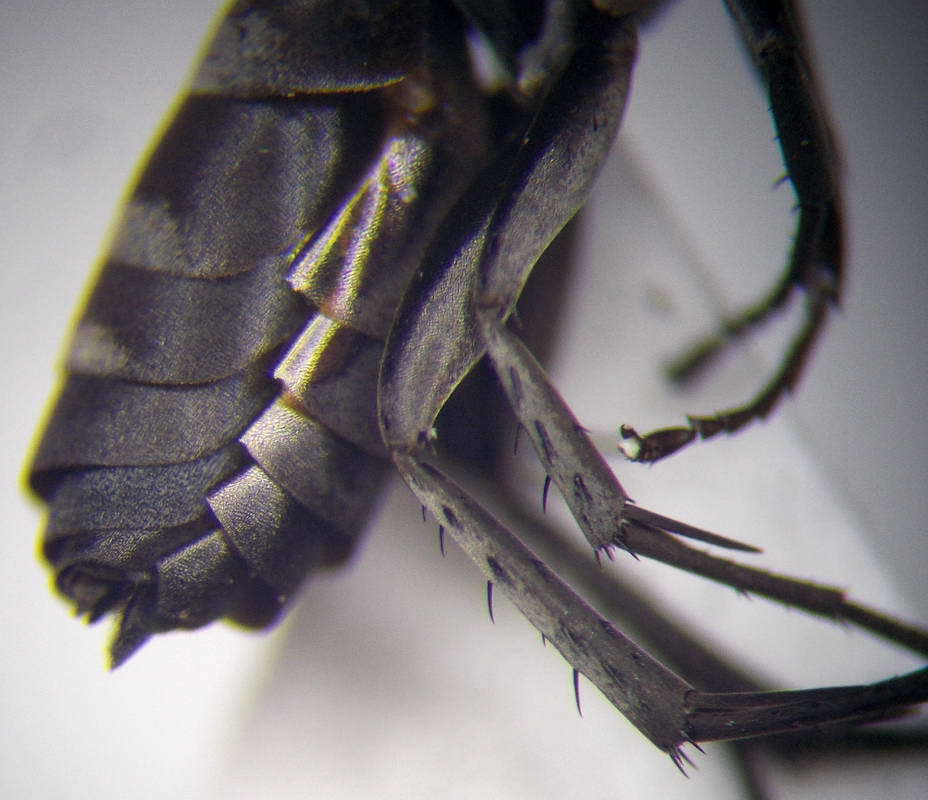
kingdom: Animalia
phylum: Arthropoda
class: Insecta
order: Hymenoptera
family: Pompilidae
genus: Aporinellus
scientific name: Aporinellus sexmaculatus
